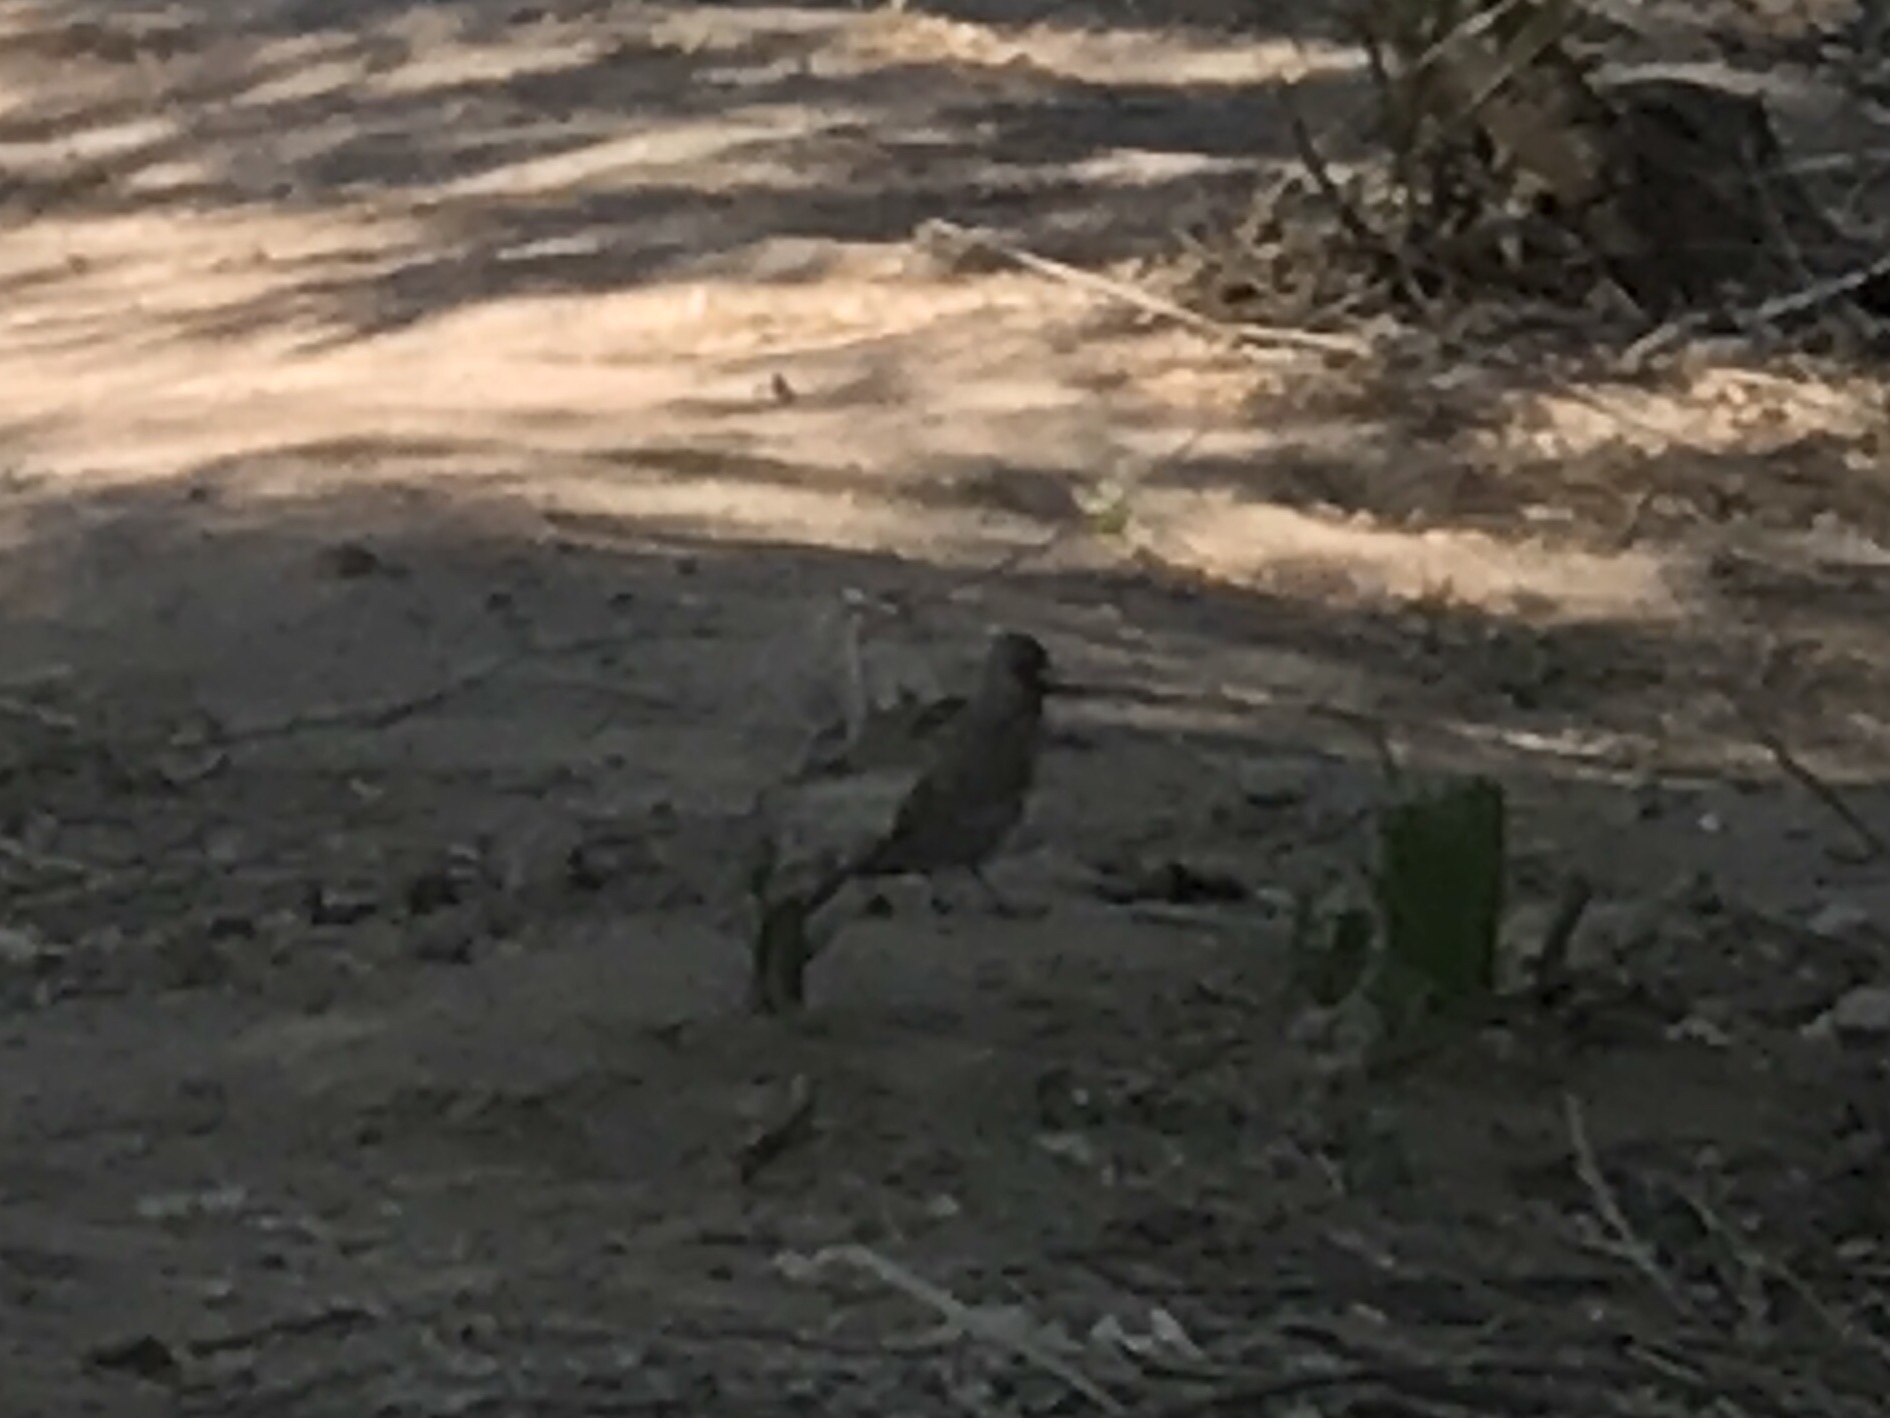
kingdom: Animalia
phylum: Chordata
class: Aves
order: Passeriformes
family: Passerellidae
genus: Melozone
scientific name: Melozone aberti
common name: Abert's towhee
